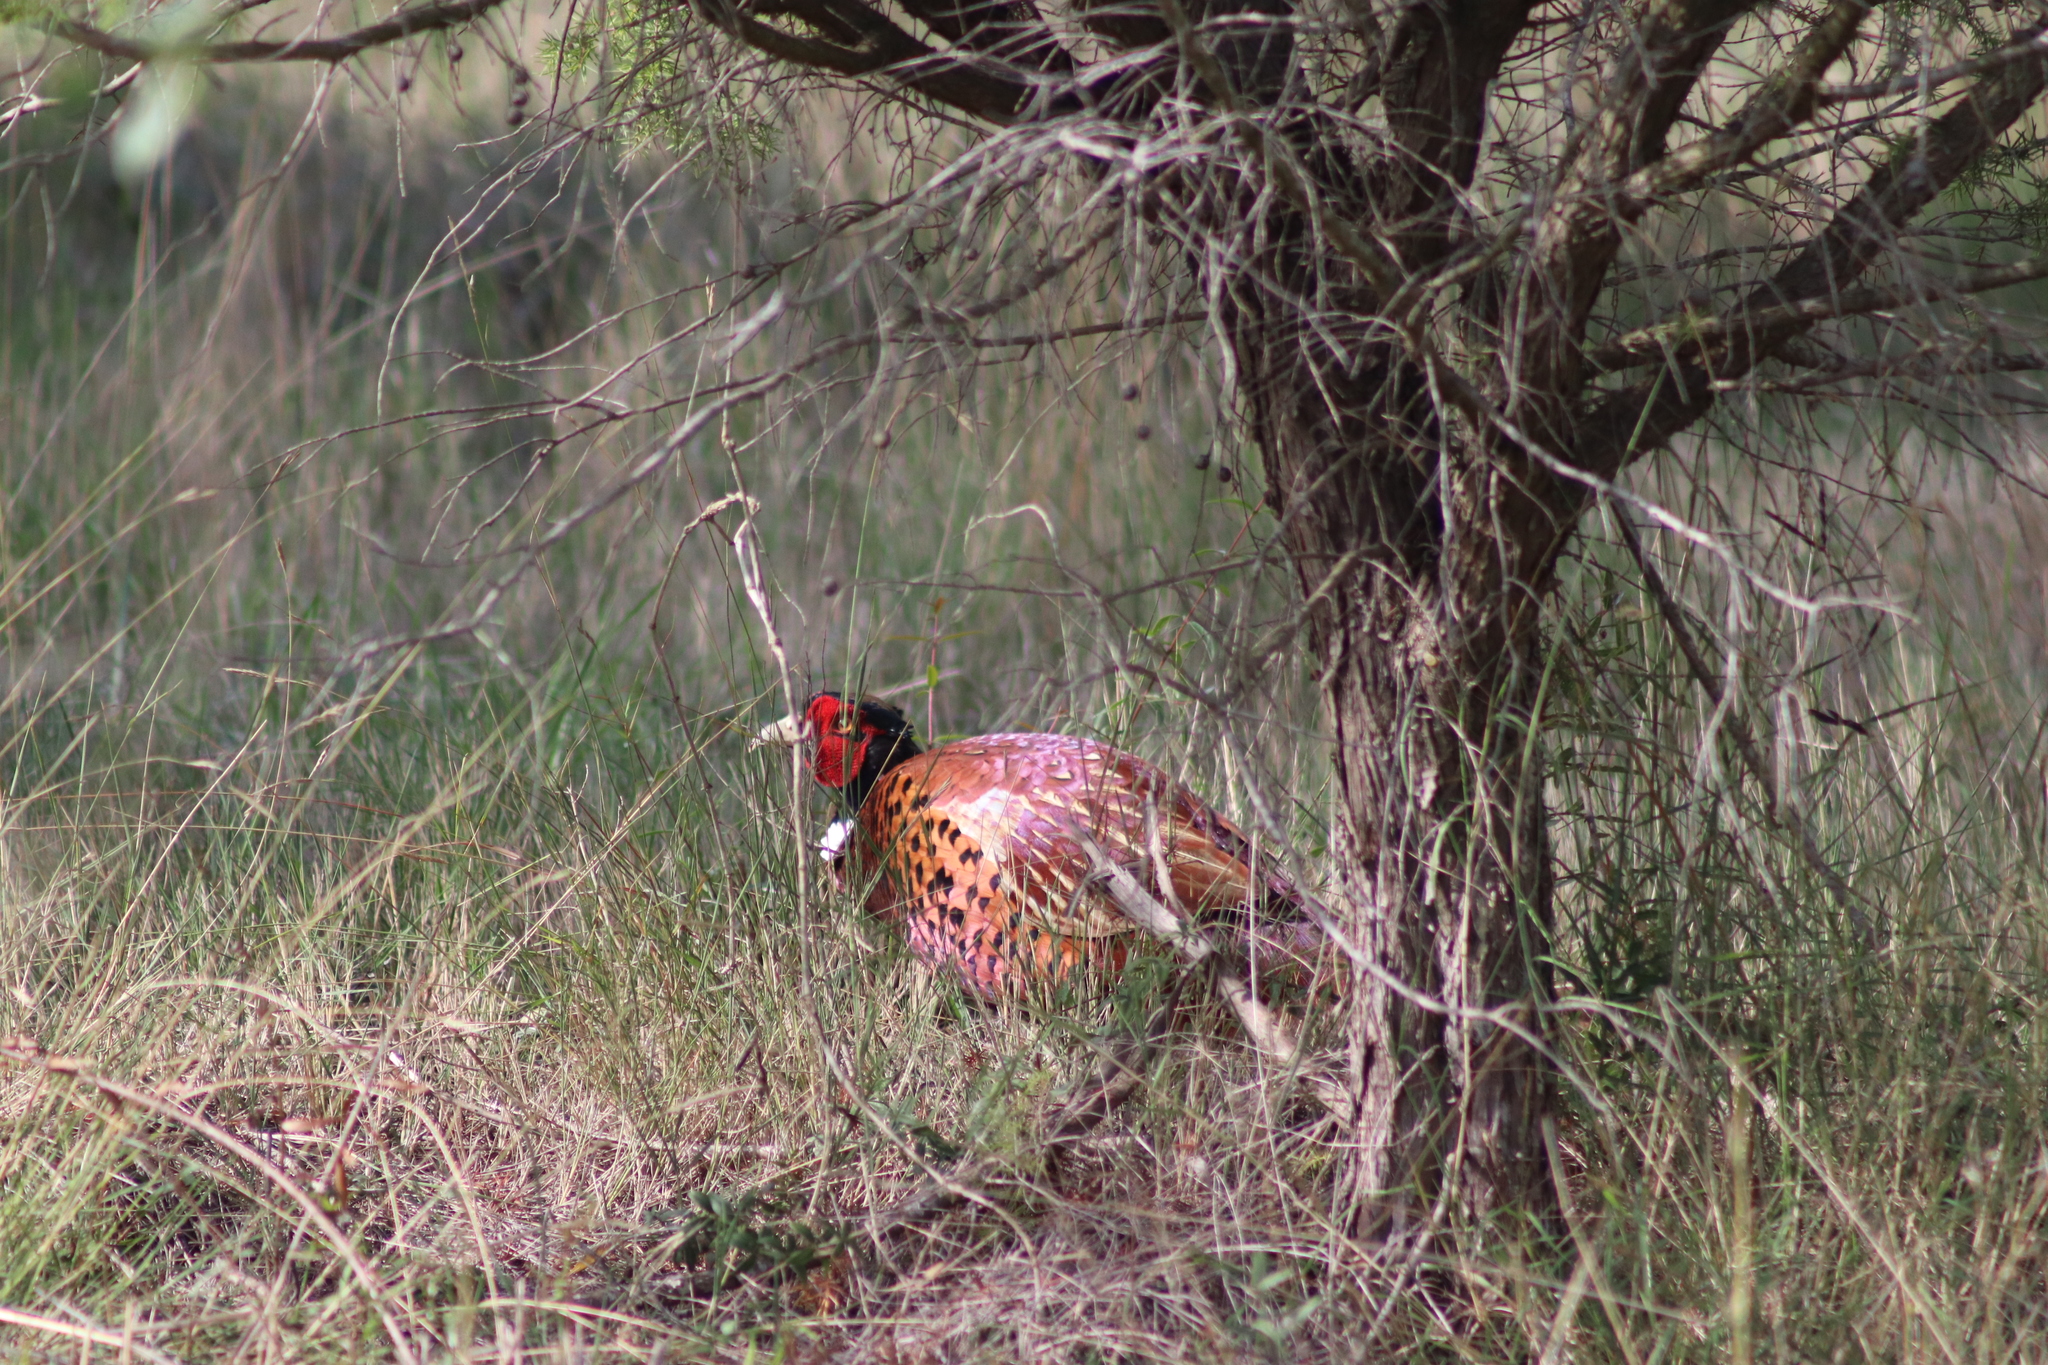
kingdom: Animalia
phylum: Chordata
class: Aves
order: Galliformes
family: Phasianidae
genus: Phasianus
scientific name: Phasianus colchicus
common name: Common pheasant
